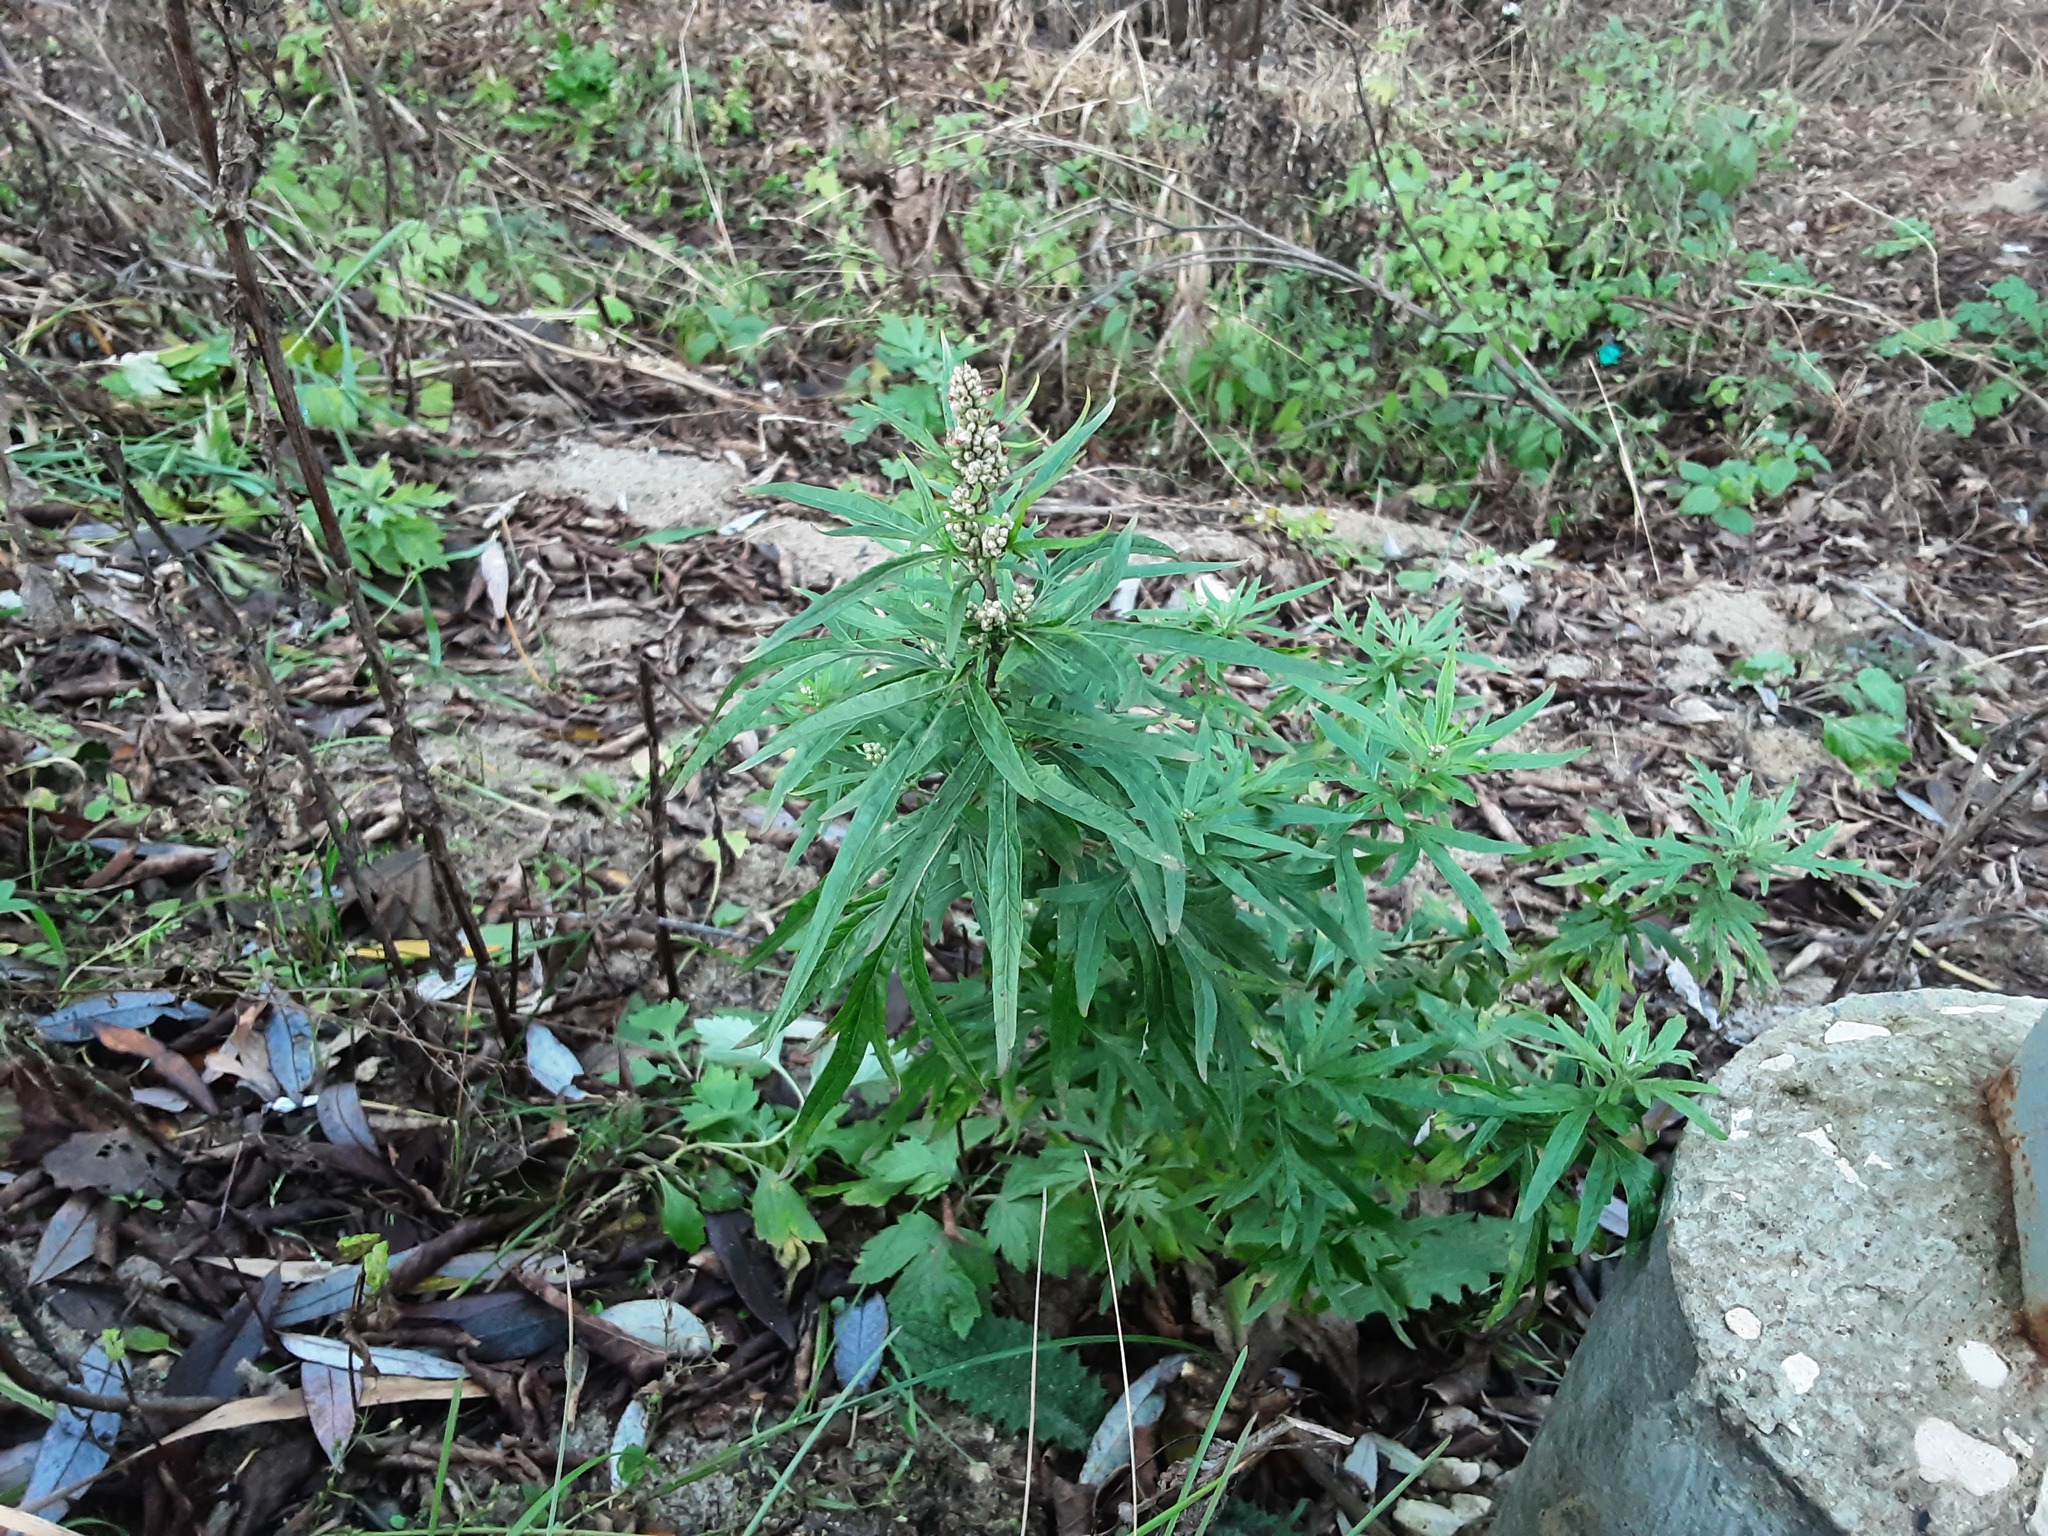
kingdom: Plantae
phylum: Tracheophyta
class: Magnoliopsida
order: Asterales
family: Asteraceae
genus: Artemisia
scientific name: Artemisia vulgaris
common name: Mugwort
